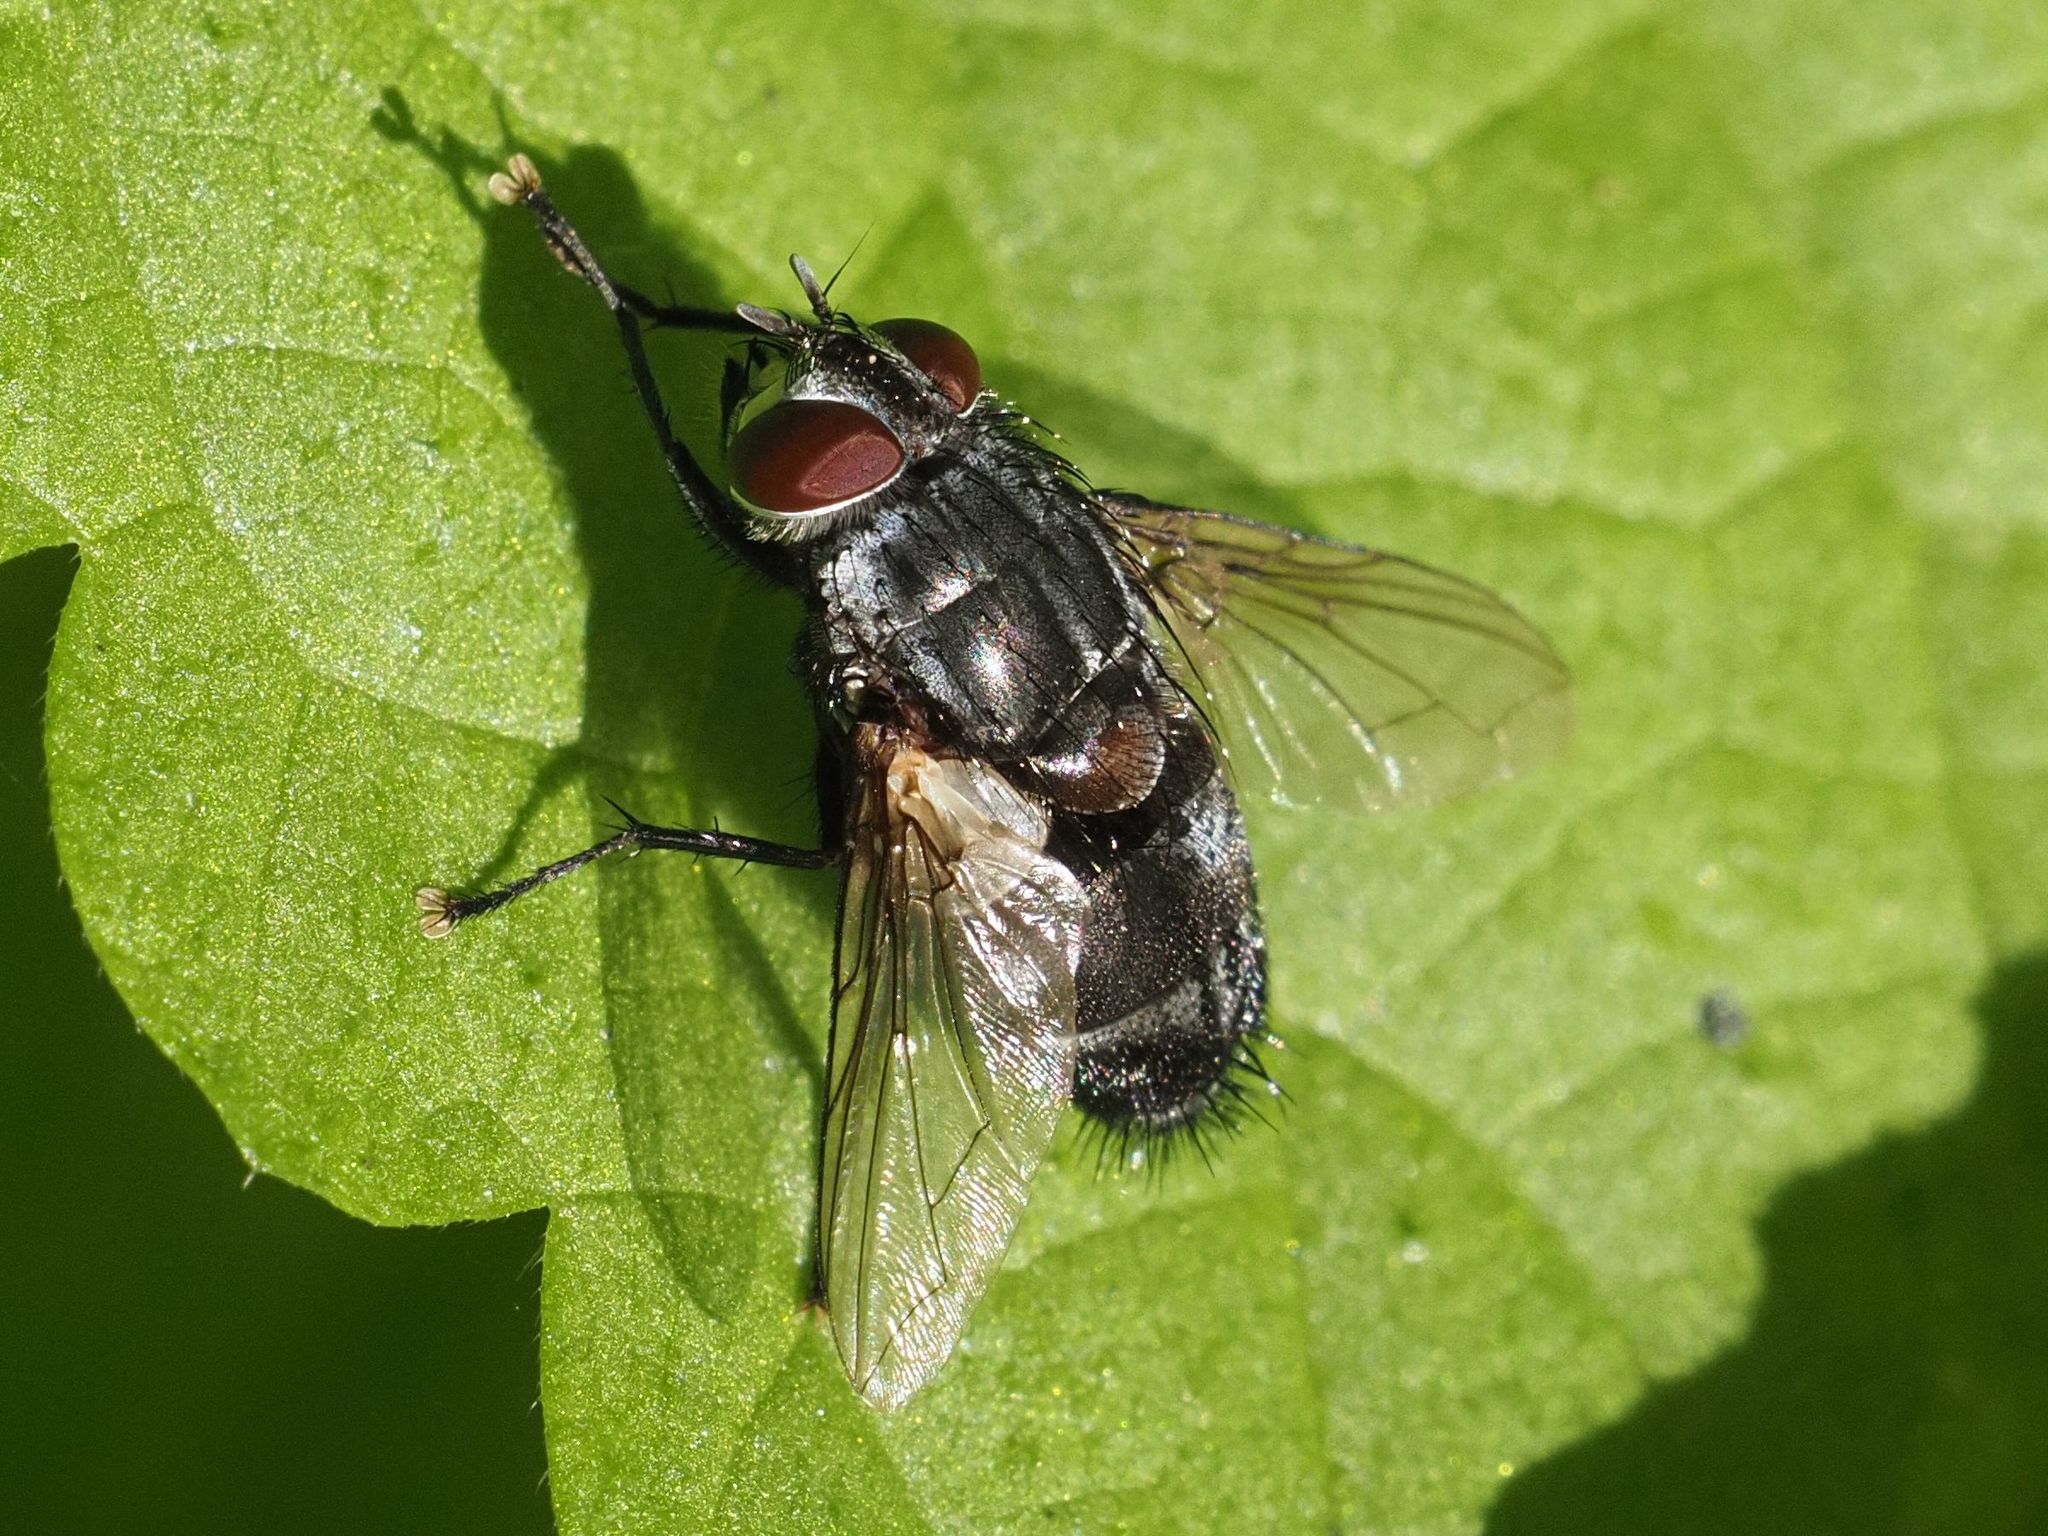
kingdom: Animalia
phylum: Arthropoda
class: Insecta
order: Diptera
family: Tachinidae
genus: Blepharipa
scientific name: Blepharipa pratensis
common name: Parasitic fly
